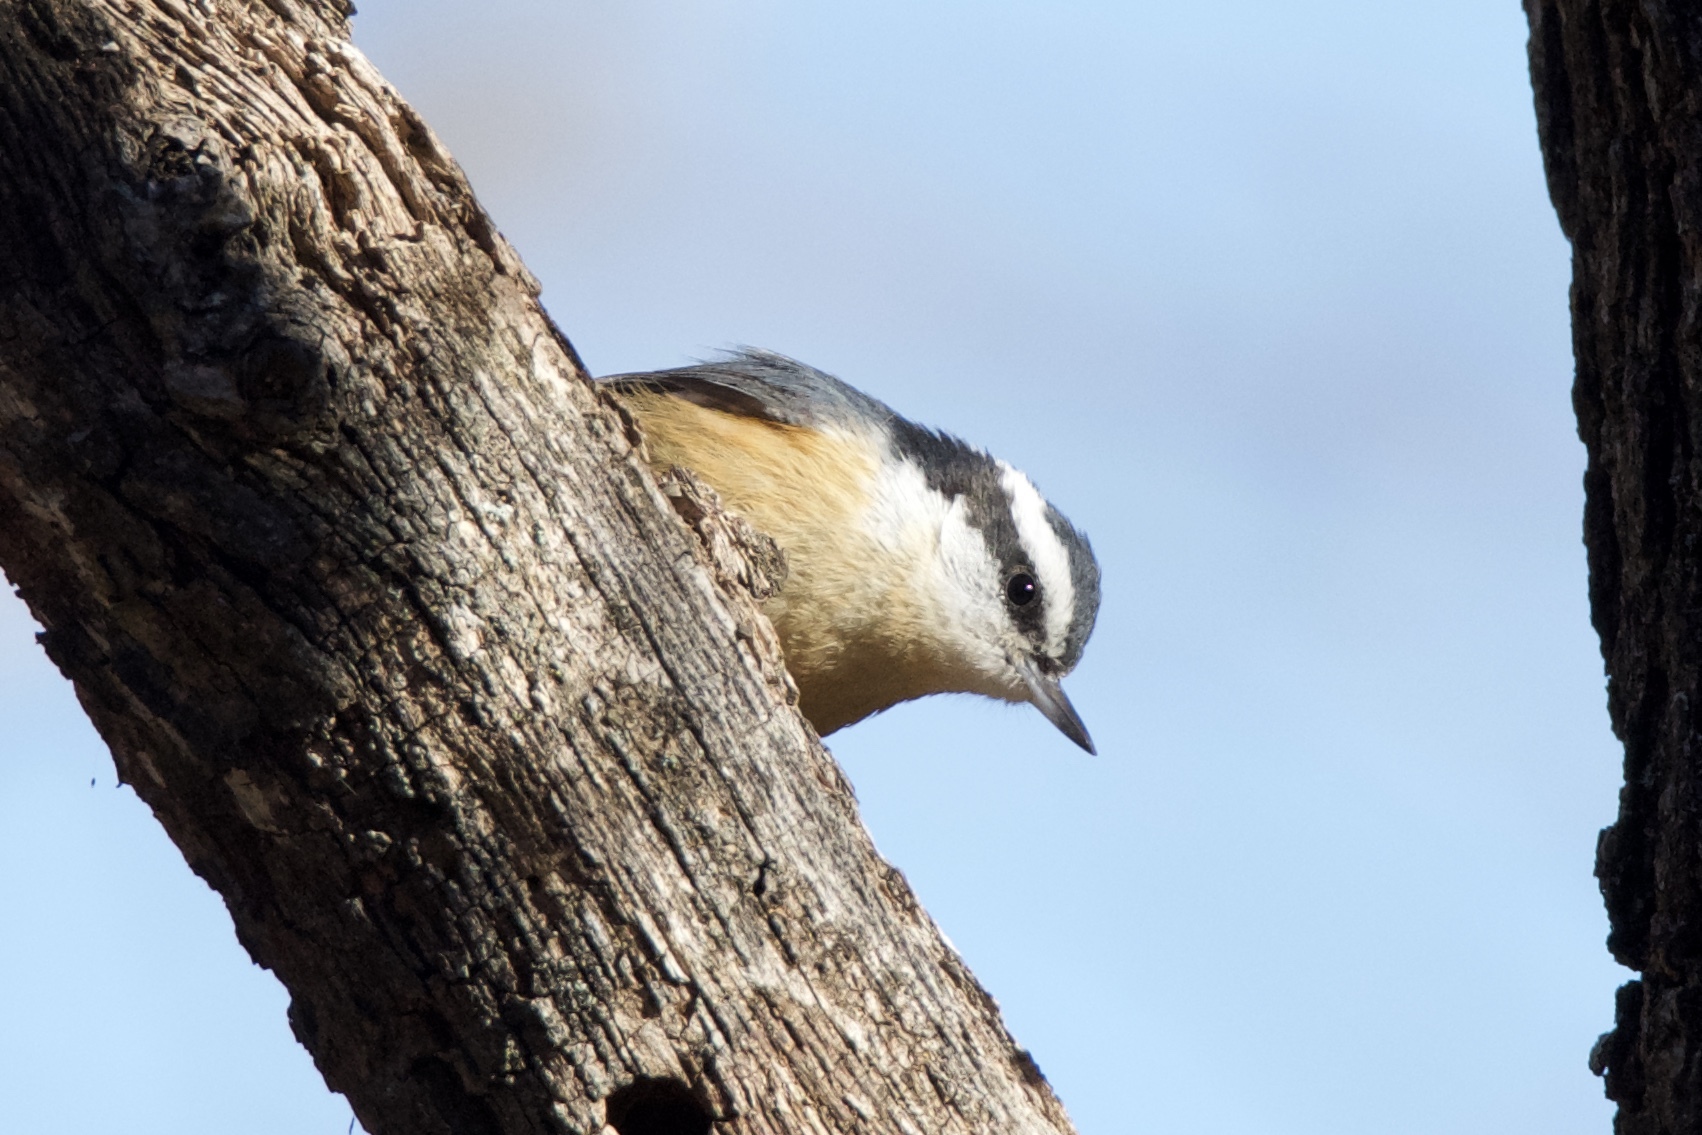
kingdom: Animalia
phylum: Chordata
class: Aves
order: Passeriformes
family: Sittidae
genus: Sitta
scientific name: Sitta canadensis
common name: Red-breasted nuthatch
